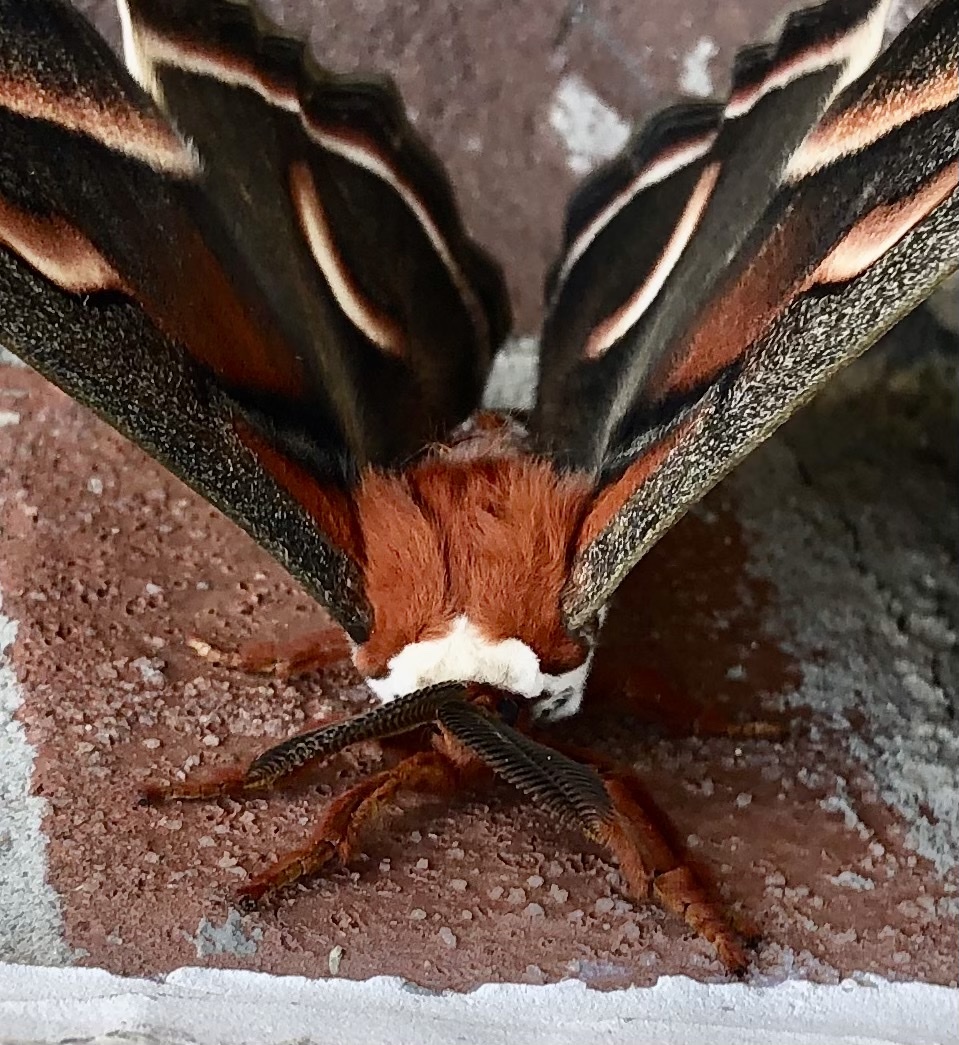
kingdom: Animalia
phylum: Arthropoda
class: Insecta
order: Lepidoptera
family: Saturniidae
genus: Hyalophora
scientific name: Hyalophora cecropia
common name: Cecropia silkmoth
